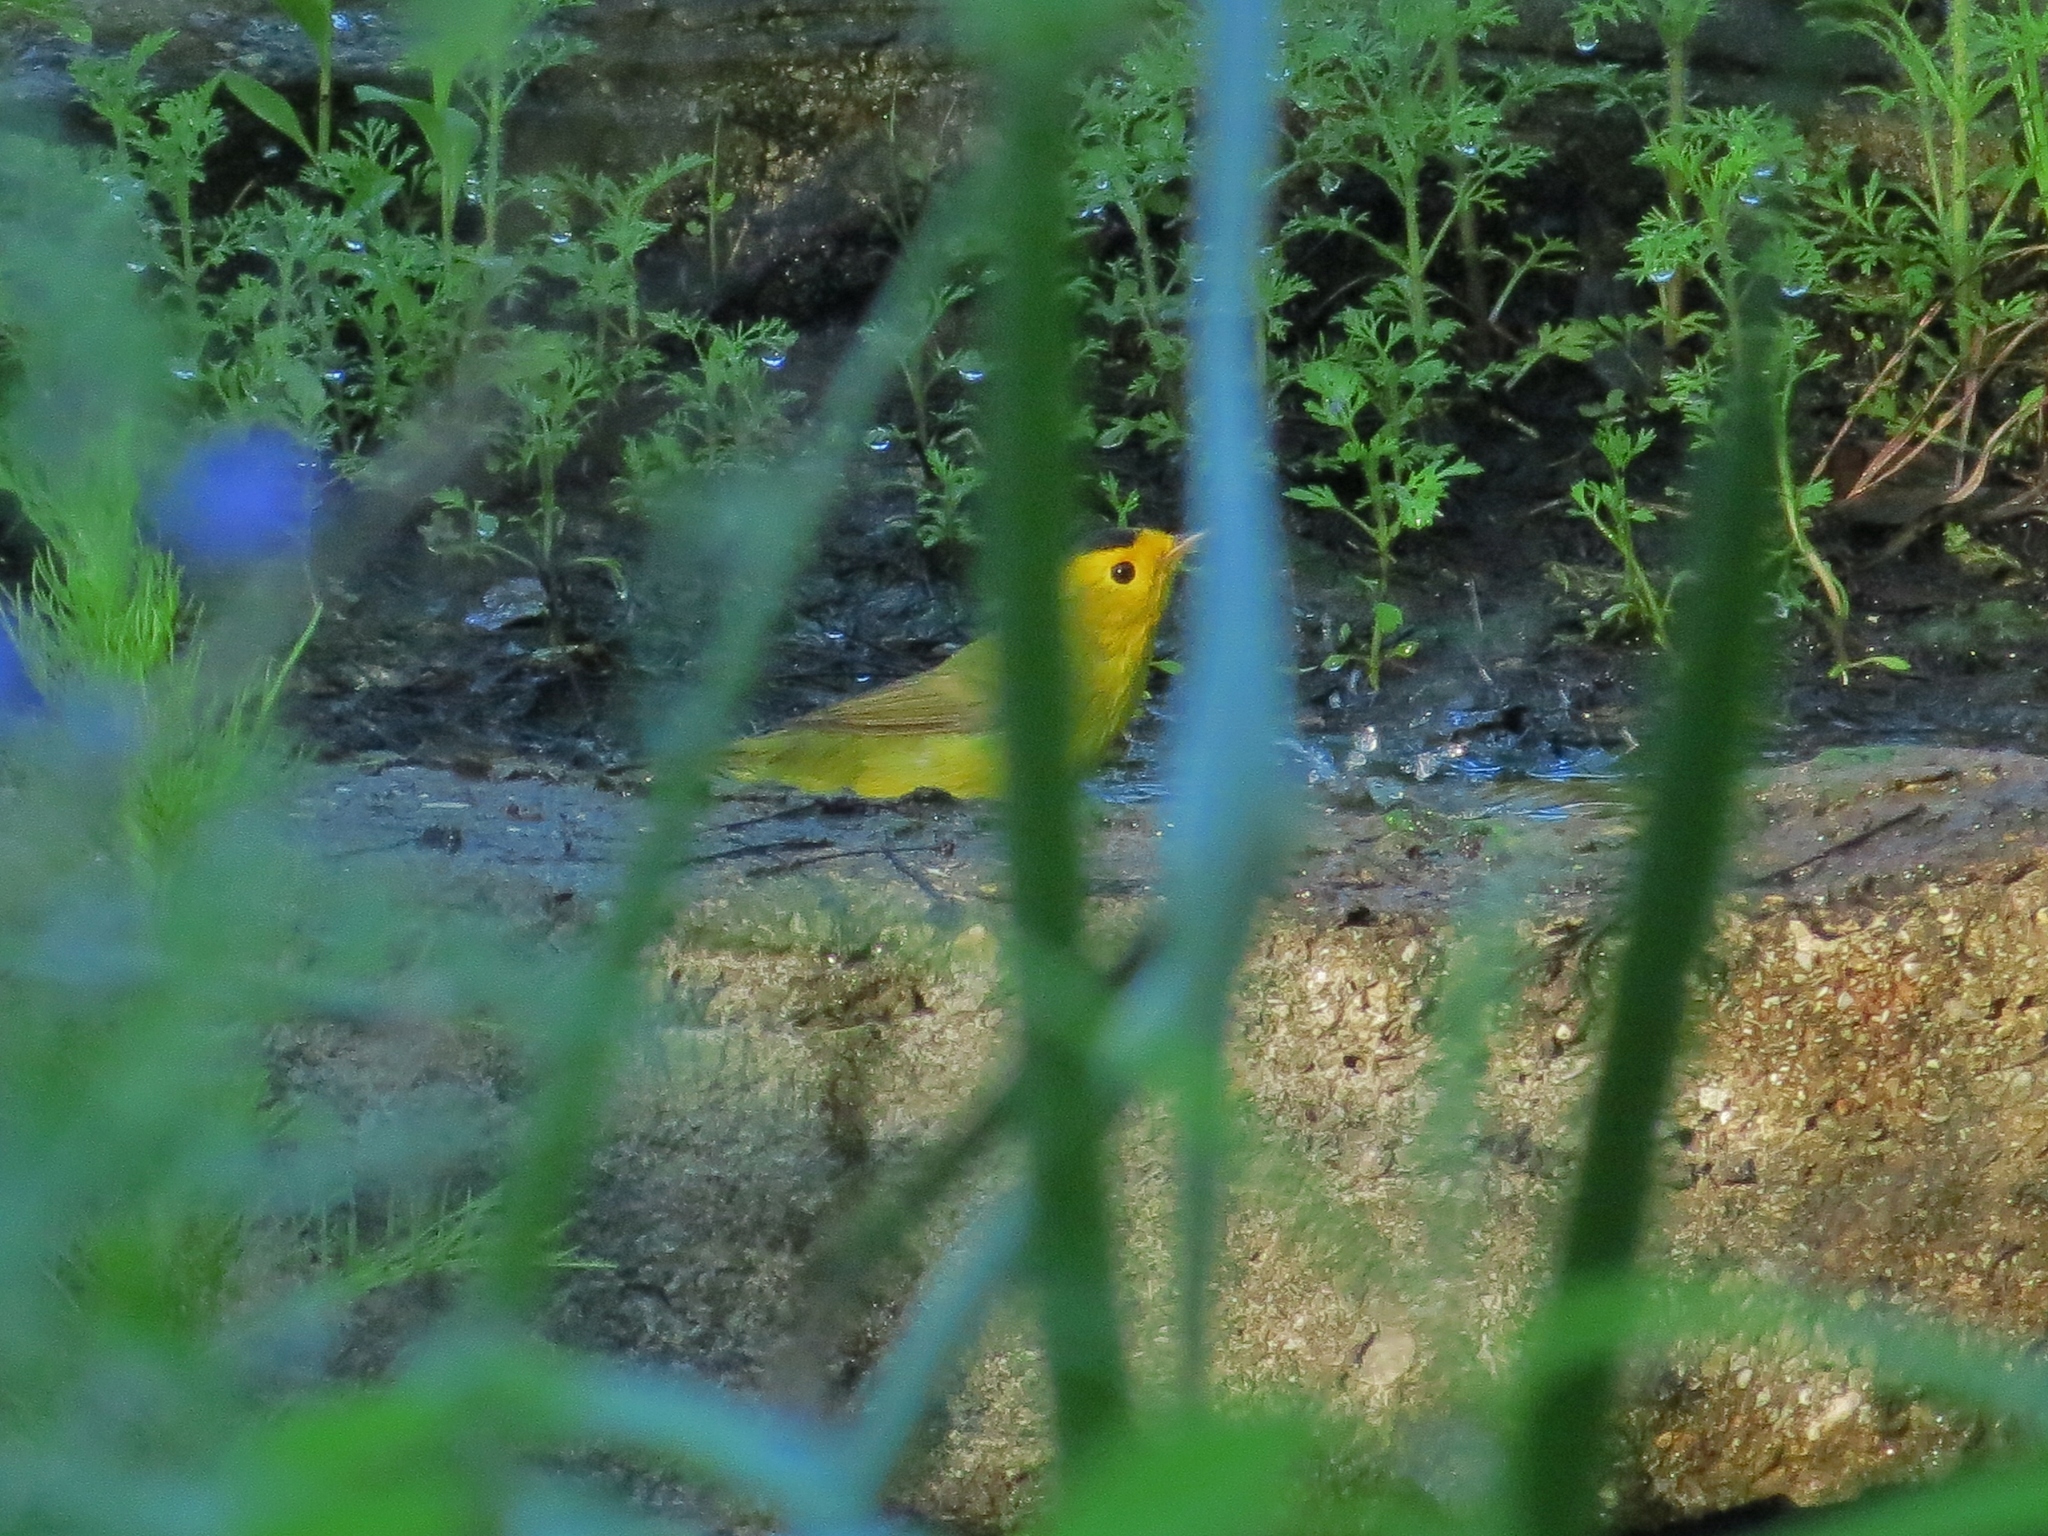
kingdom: Animalia
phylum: Chordata
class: Aves
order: Passeriformes
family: Parulidae
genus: Cardellina
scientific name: Cardellina pusilla
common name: Wilson's warbler
